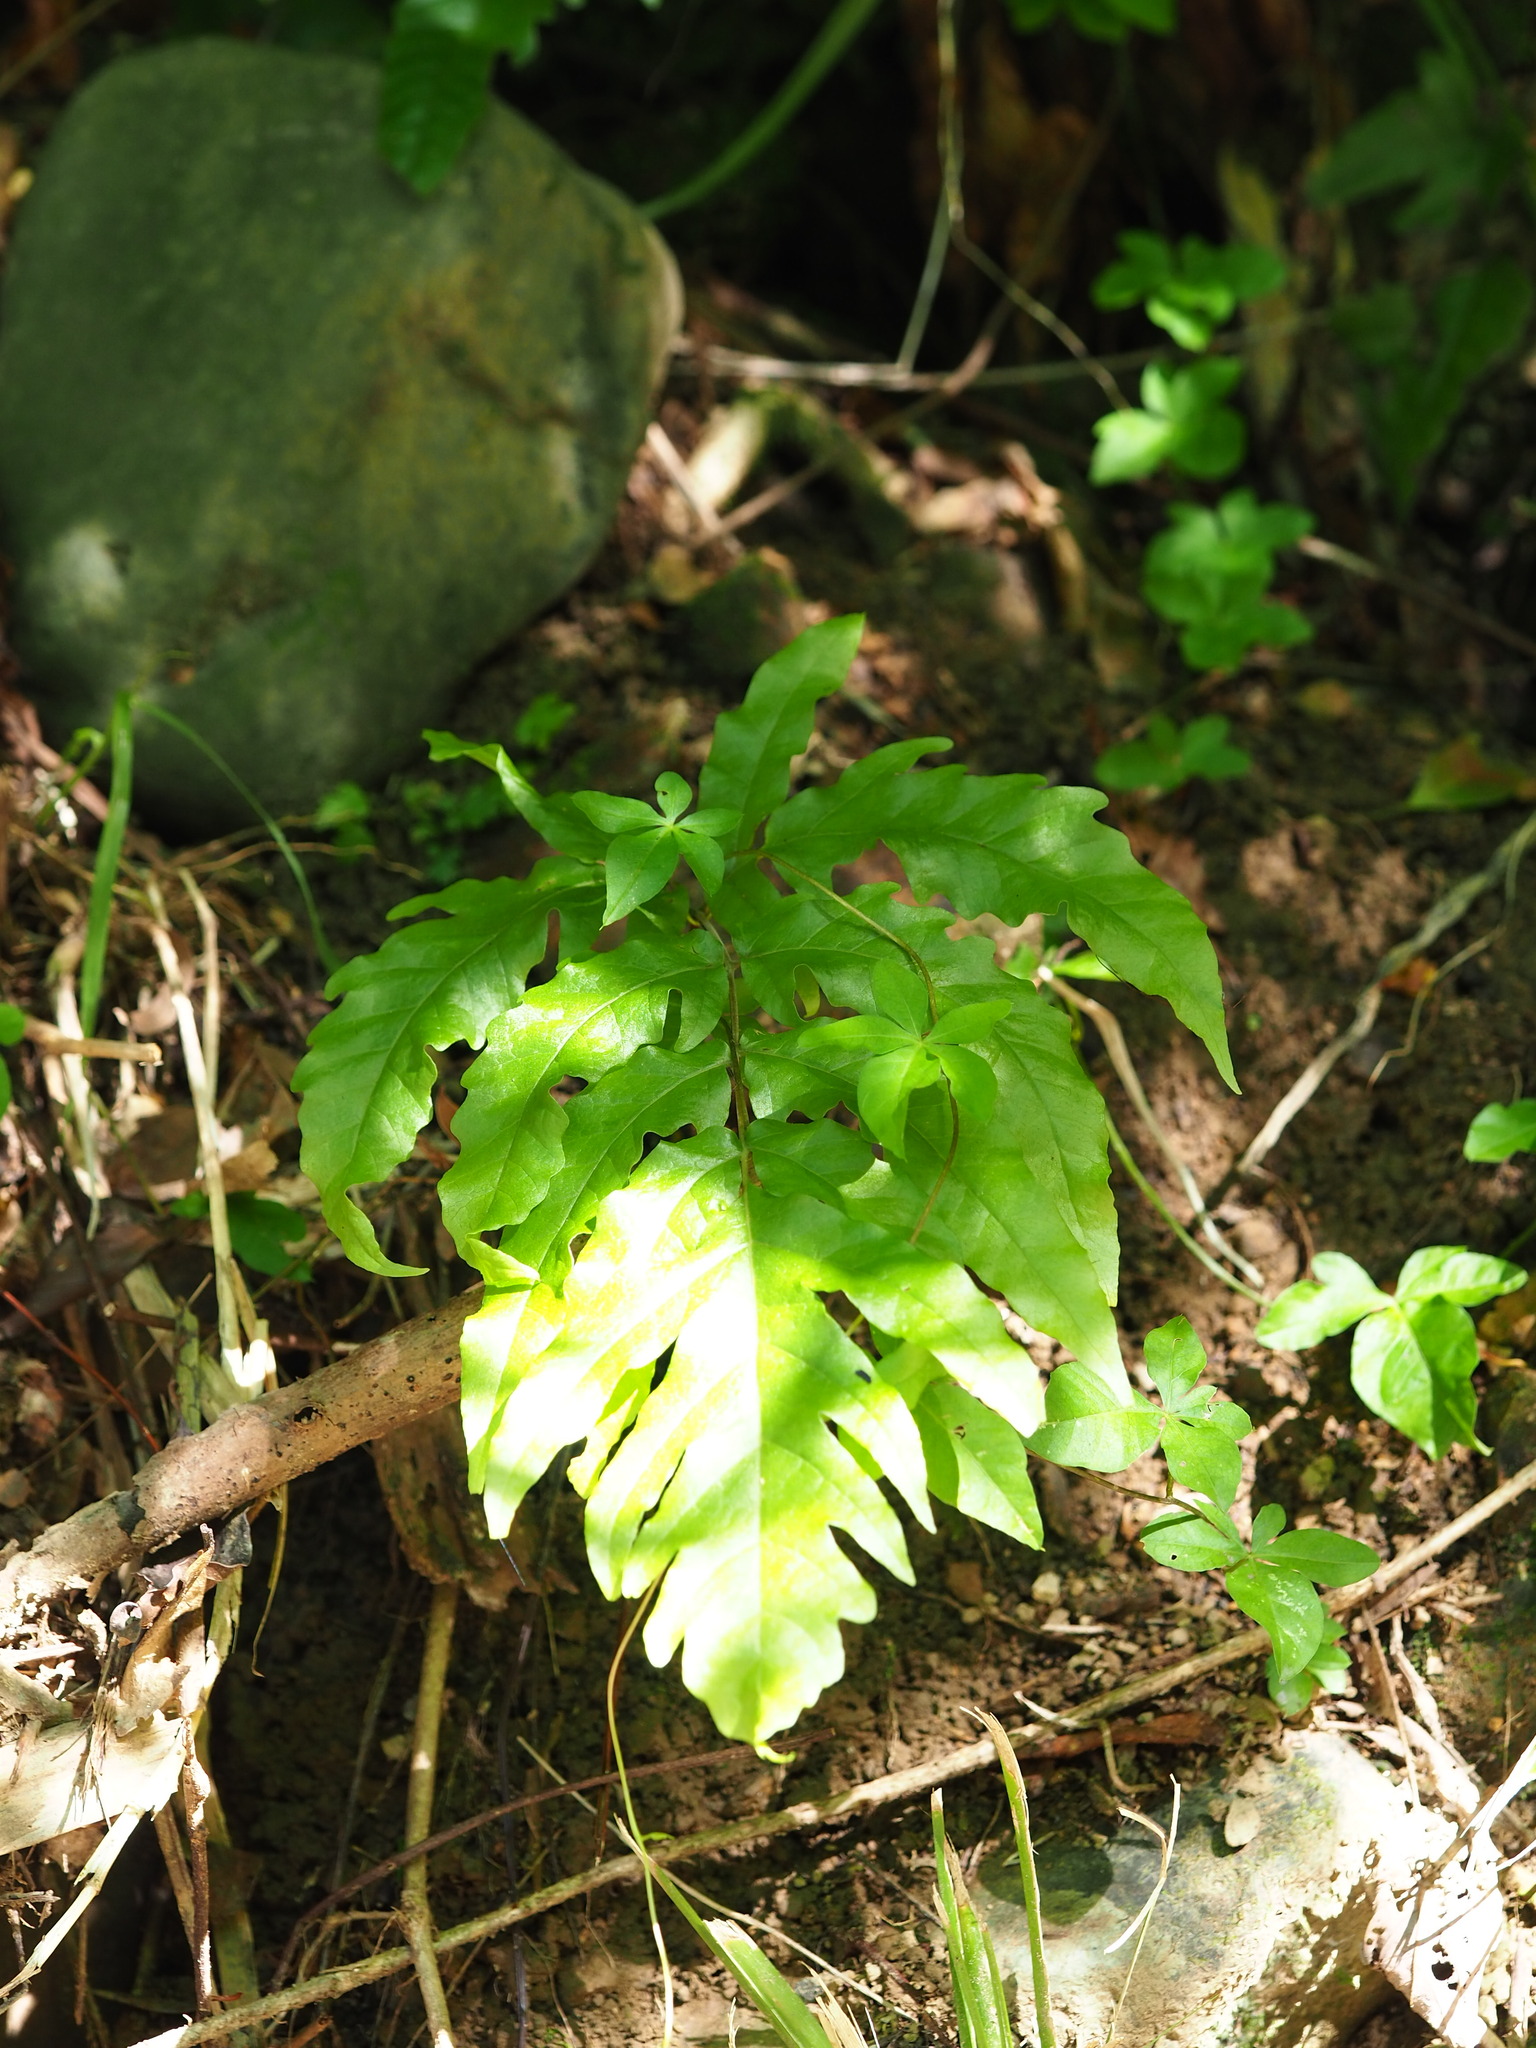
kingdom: Plantae
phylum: Tracheophyta
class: Polypodiopsida
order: Polypodiales
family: Tectariaceae
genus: Tectaria
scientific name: Tectaria phaeocaulis
